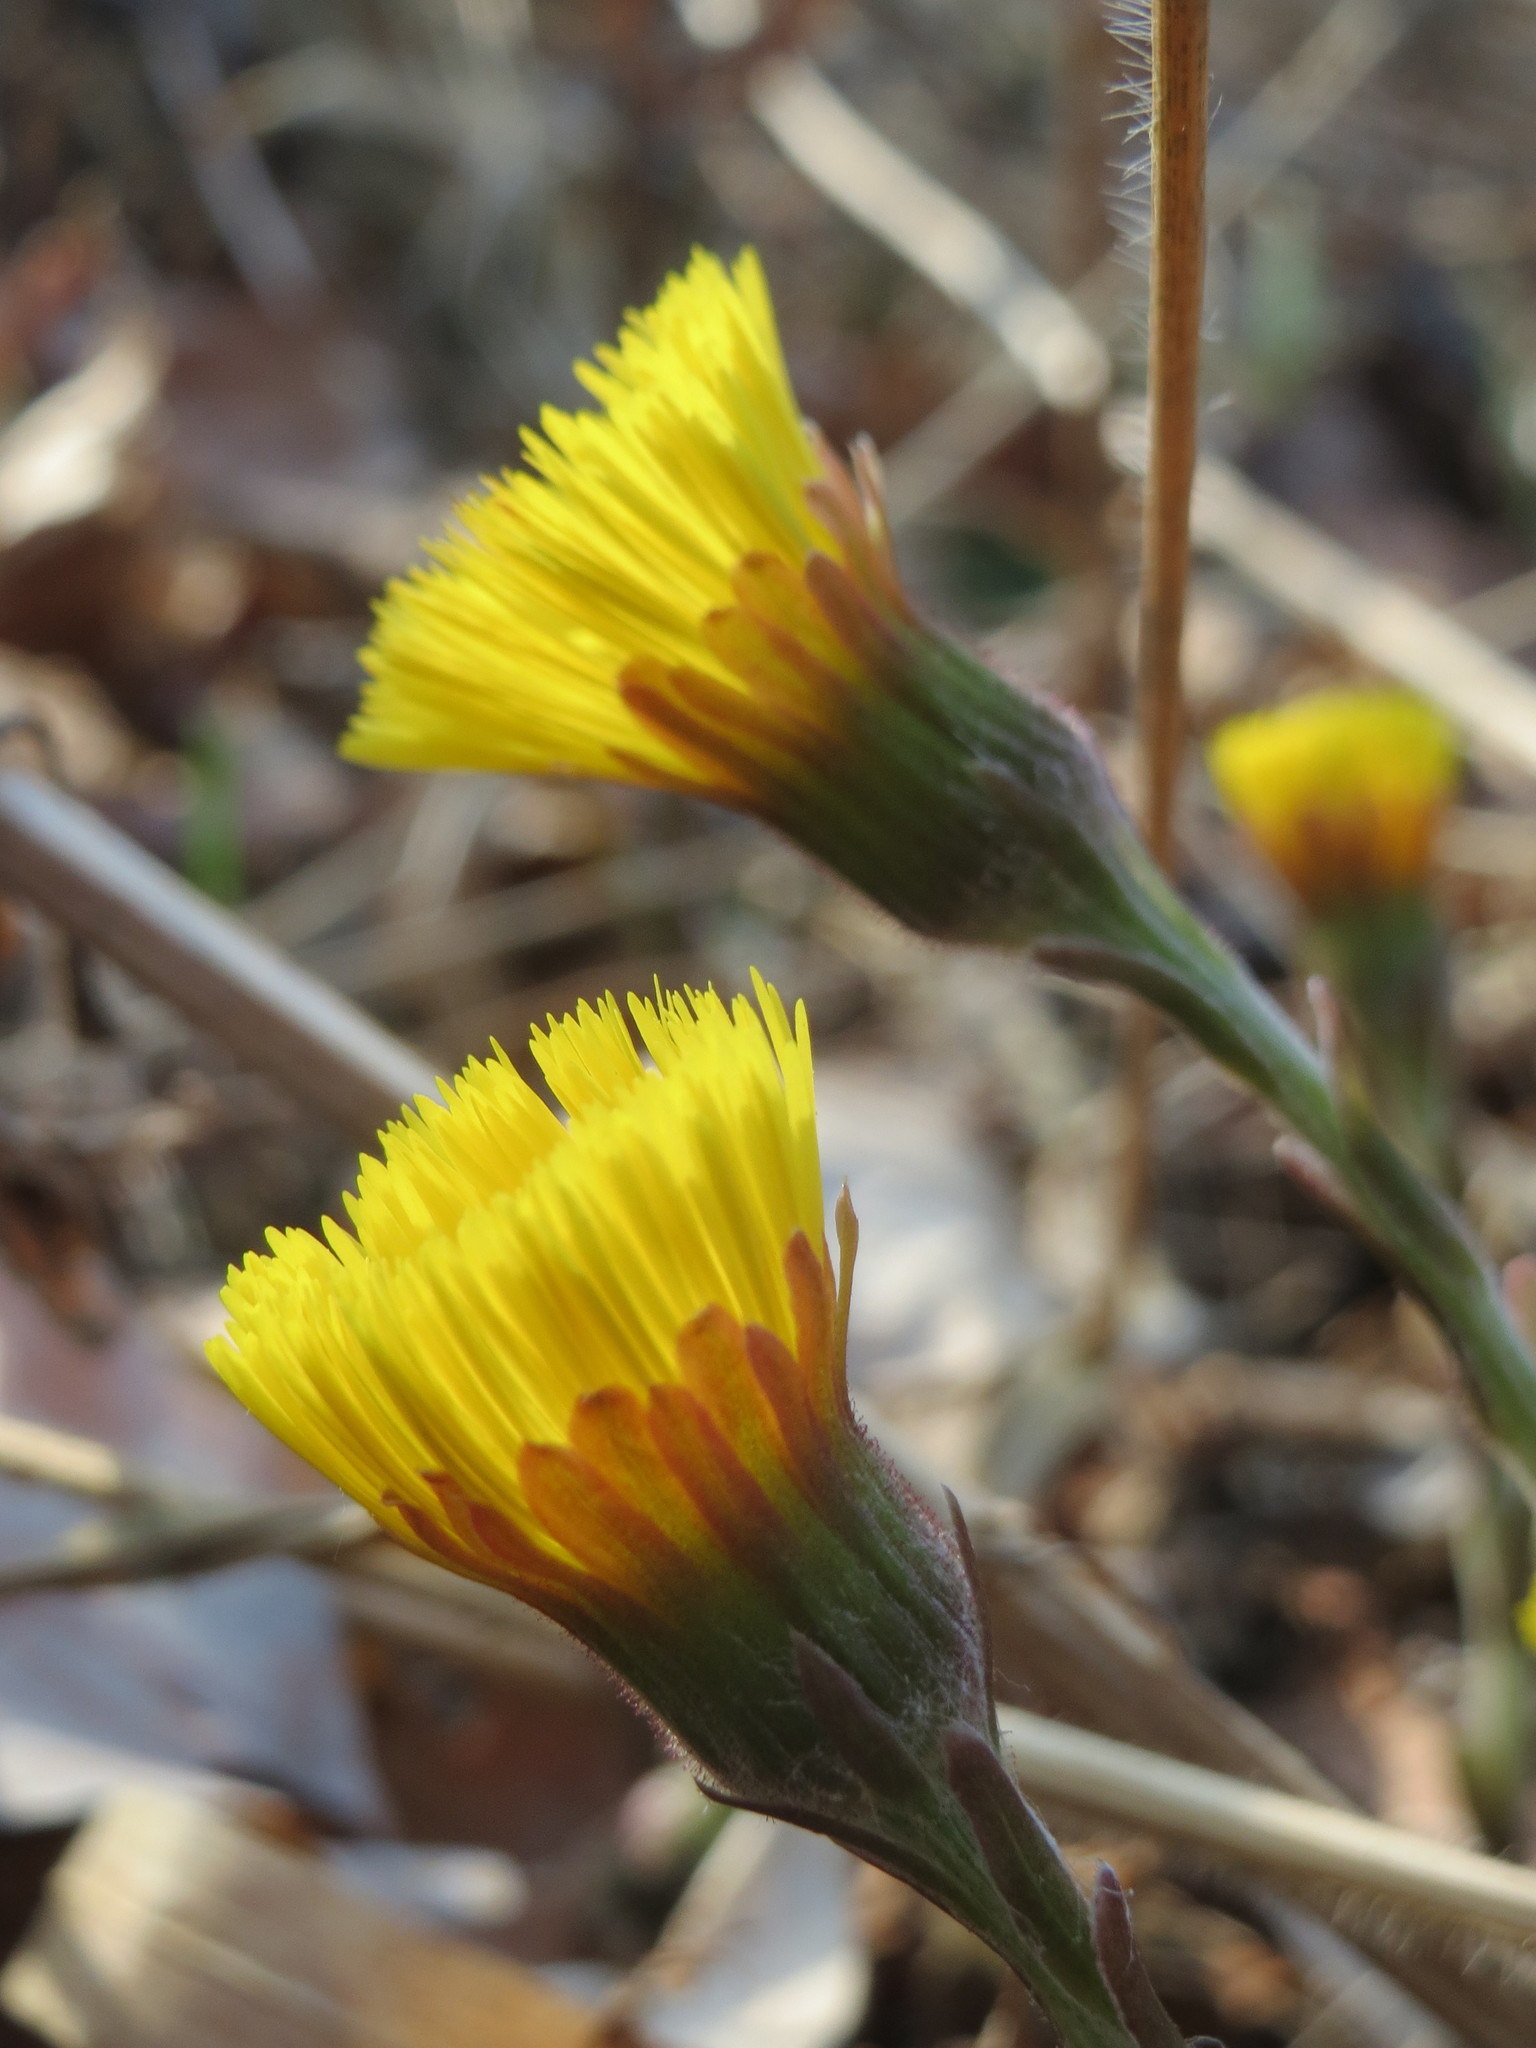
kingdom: Plantae
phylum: Tracheophyta
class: Magnoliopsida
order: Asterales
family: Asteraceae
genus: Tussilago
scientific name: Tussilago farfara
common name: Coltsfoot
